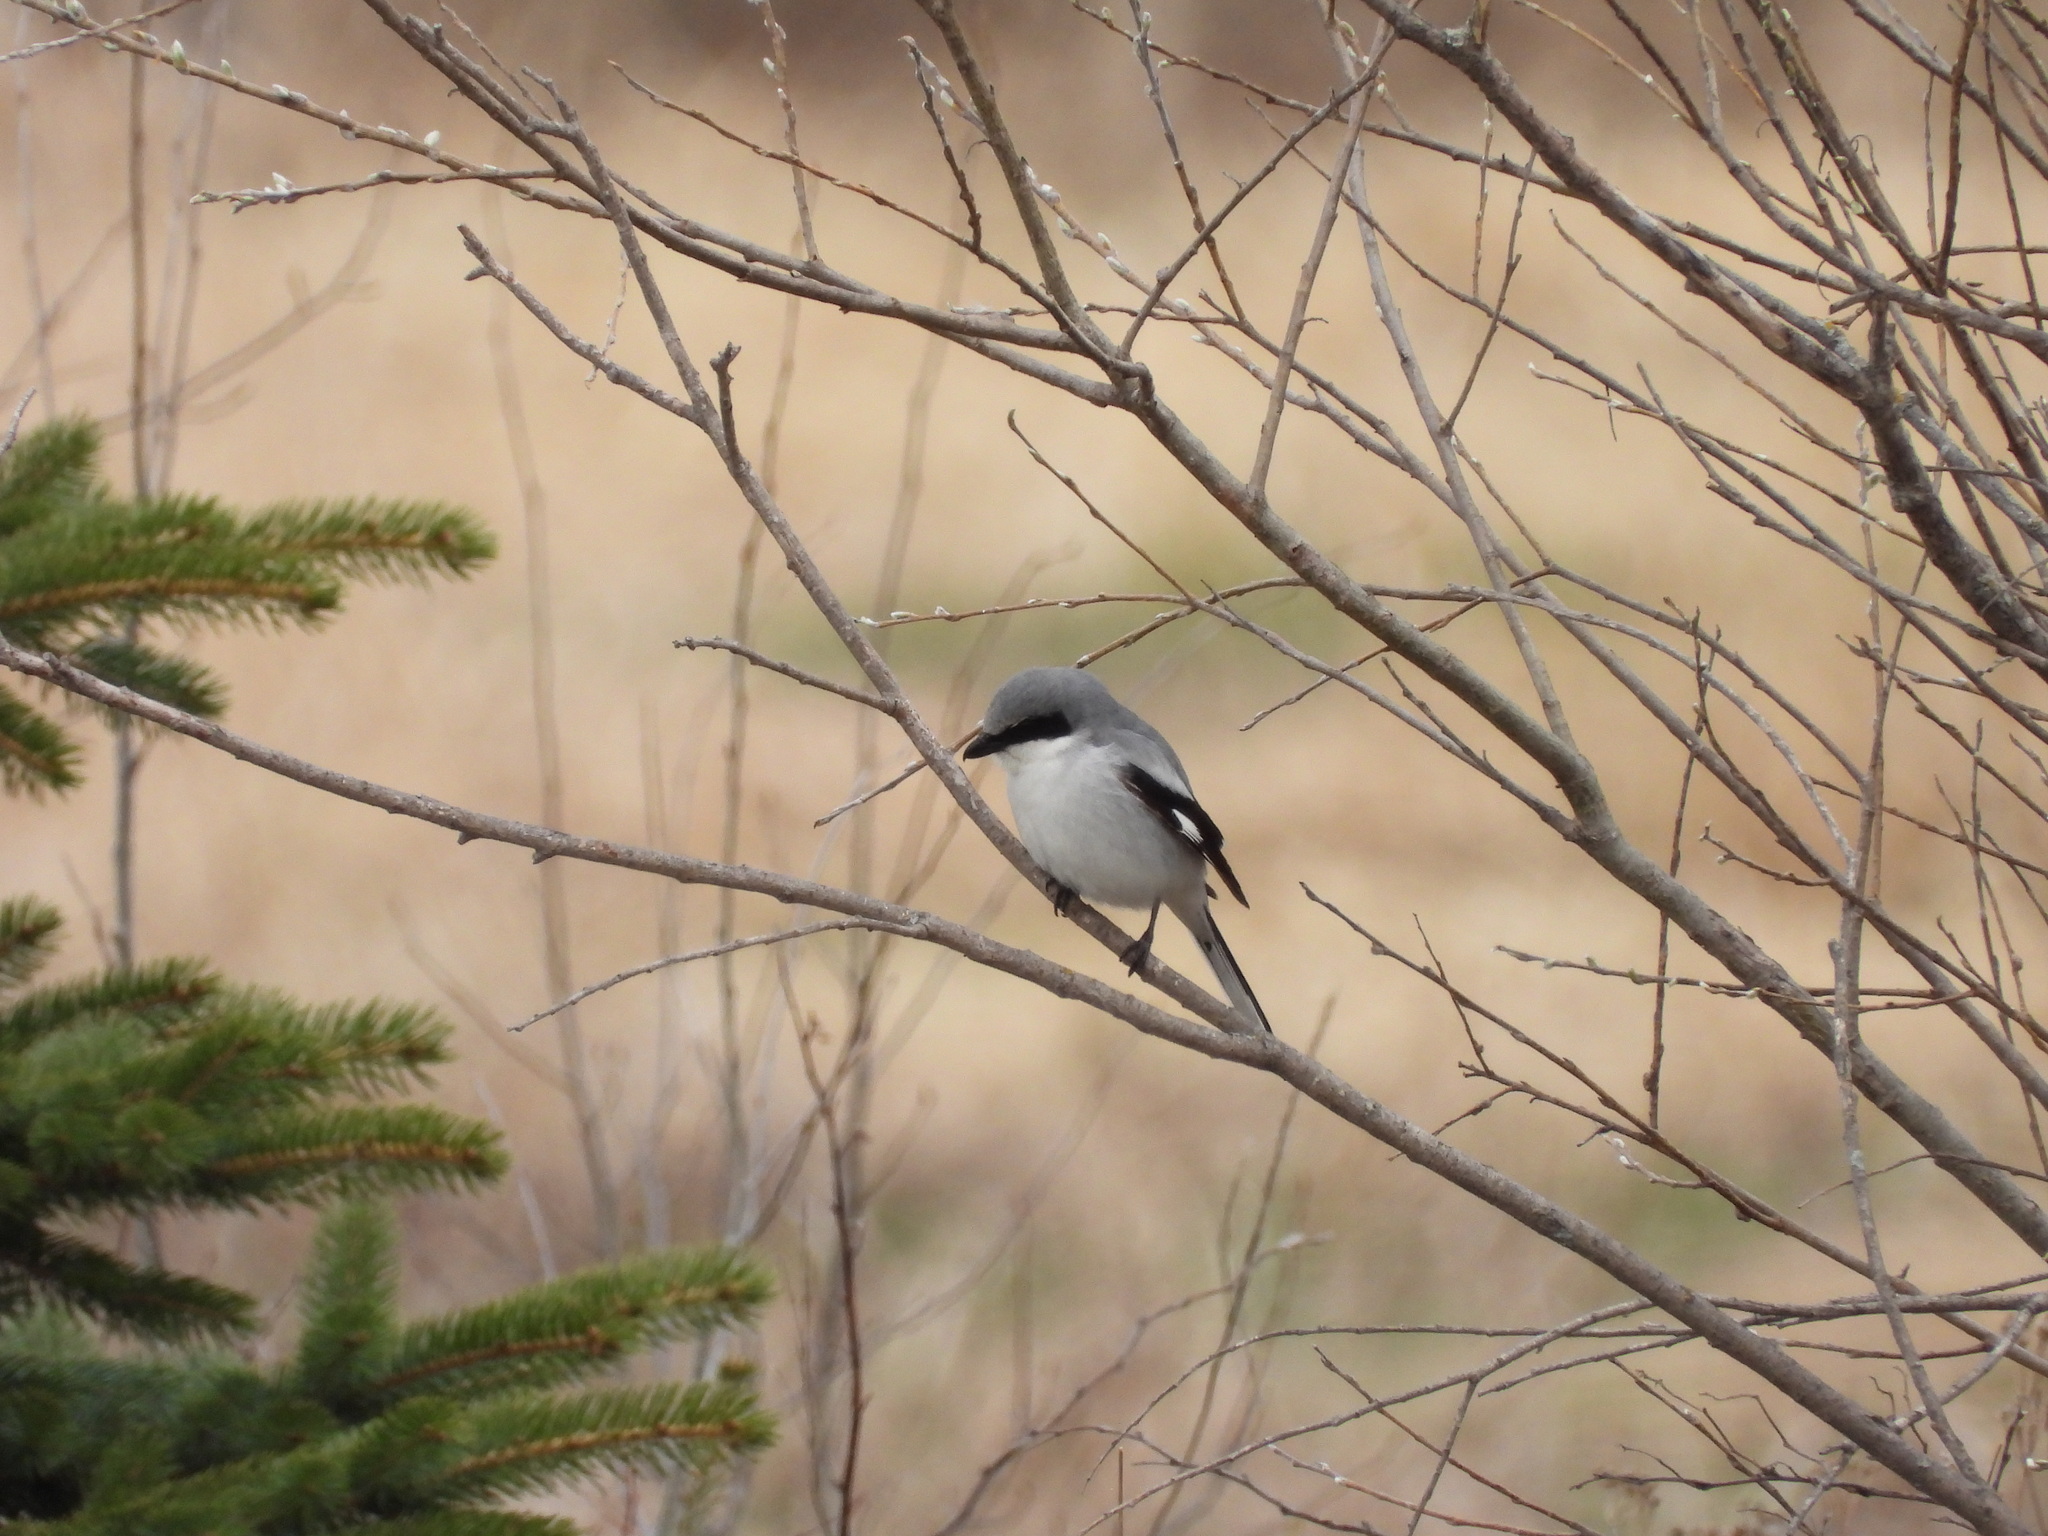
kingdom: Animalia
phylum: Chordata
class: Aves
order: Passeriformes
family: Laniidae
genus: Lanius
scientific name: Lanius ludovicianus
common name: Loggerhead shrike
